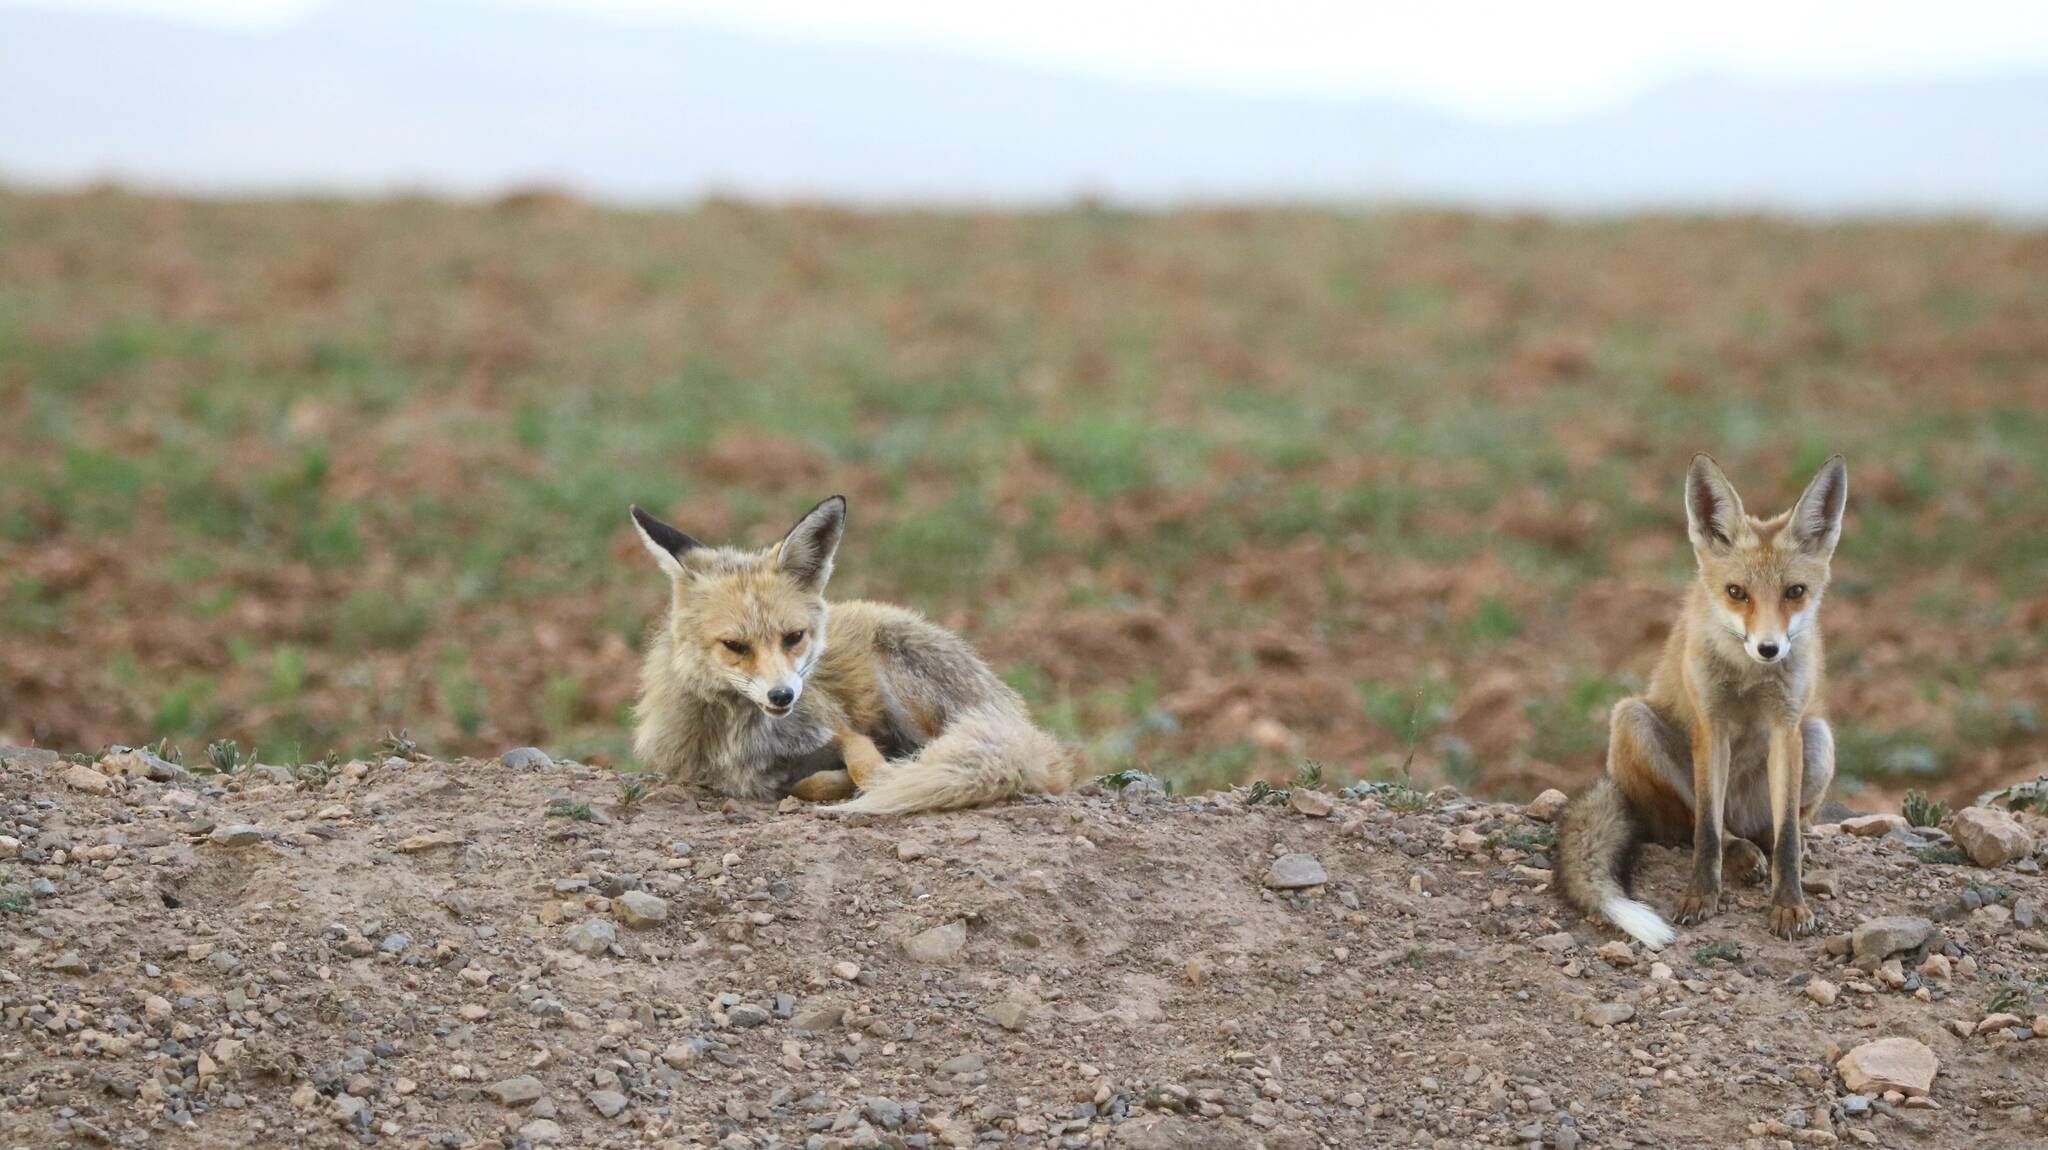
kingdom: Animalia
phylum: Chordata
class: Mammalia
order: Carnivora
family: Canidae
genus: Vulpes
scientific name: Vulpes vulpes
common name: Red fox
